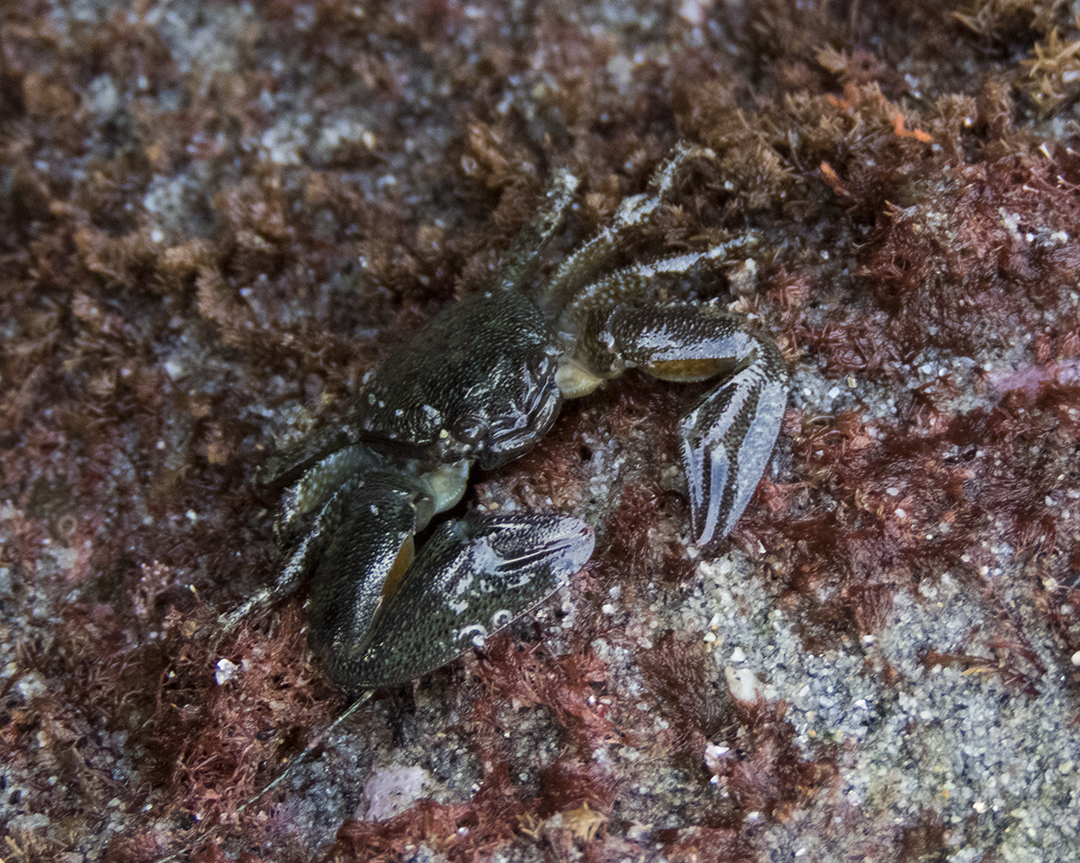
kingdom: Animalia
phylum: Arthropoda
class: Malacostraca
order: Decapoda
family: Porcellanidae
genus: Petrolisthes
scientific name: Petrolisthes elongatus
